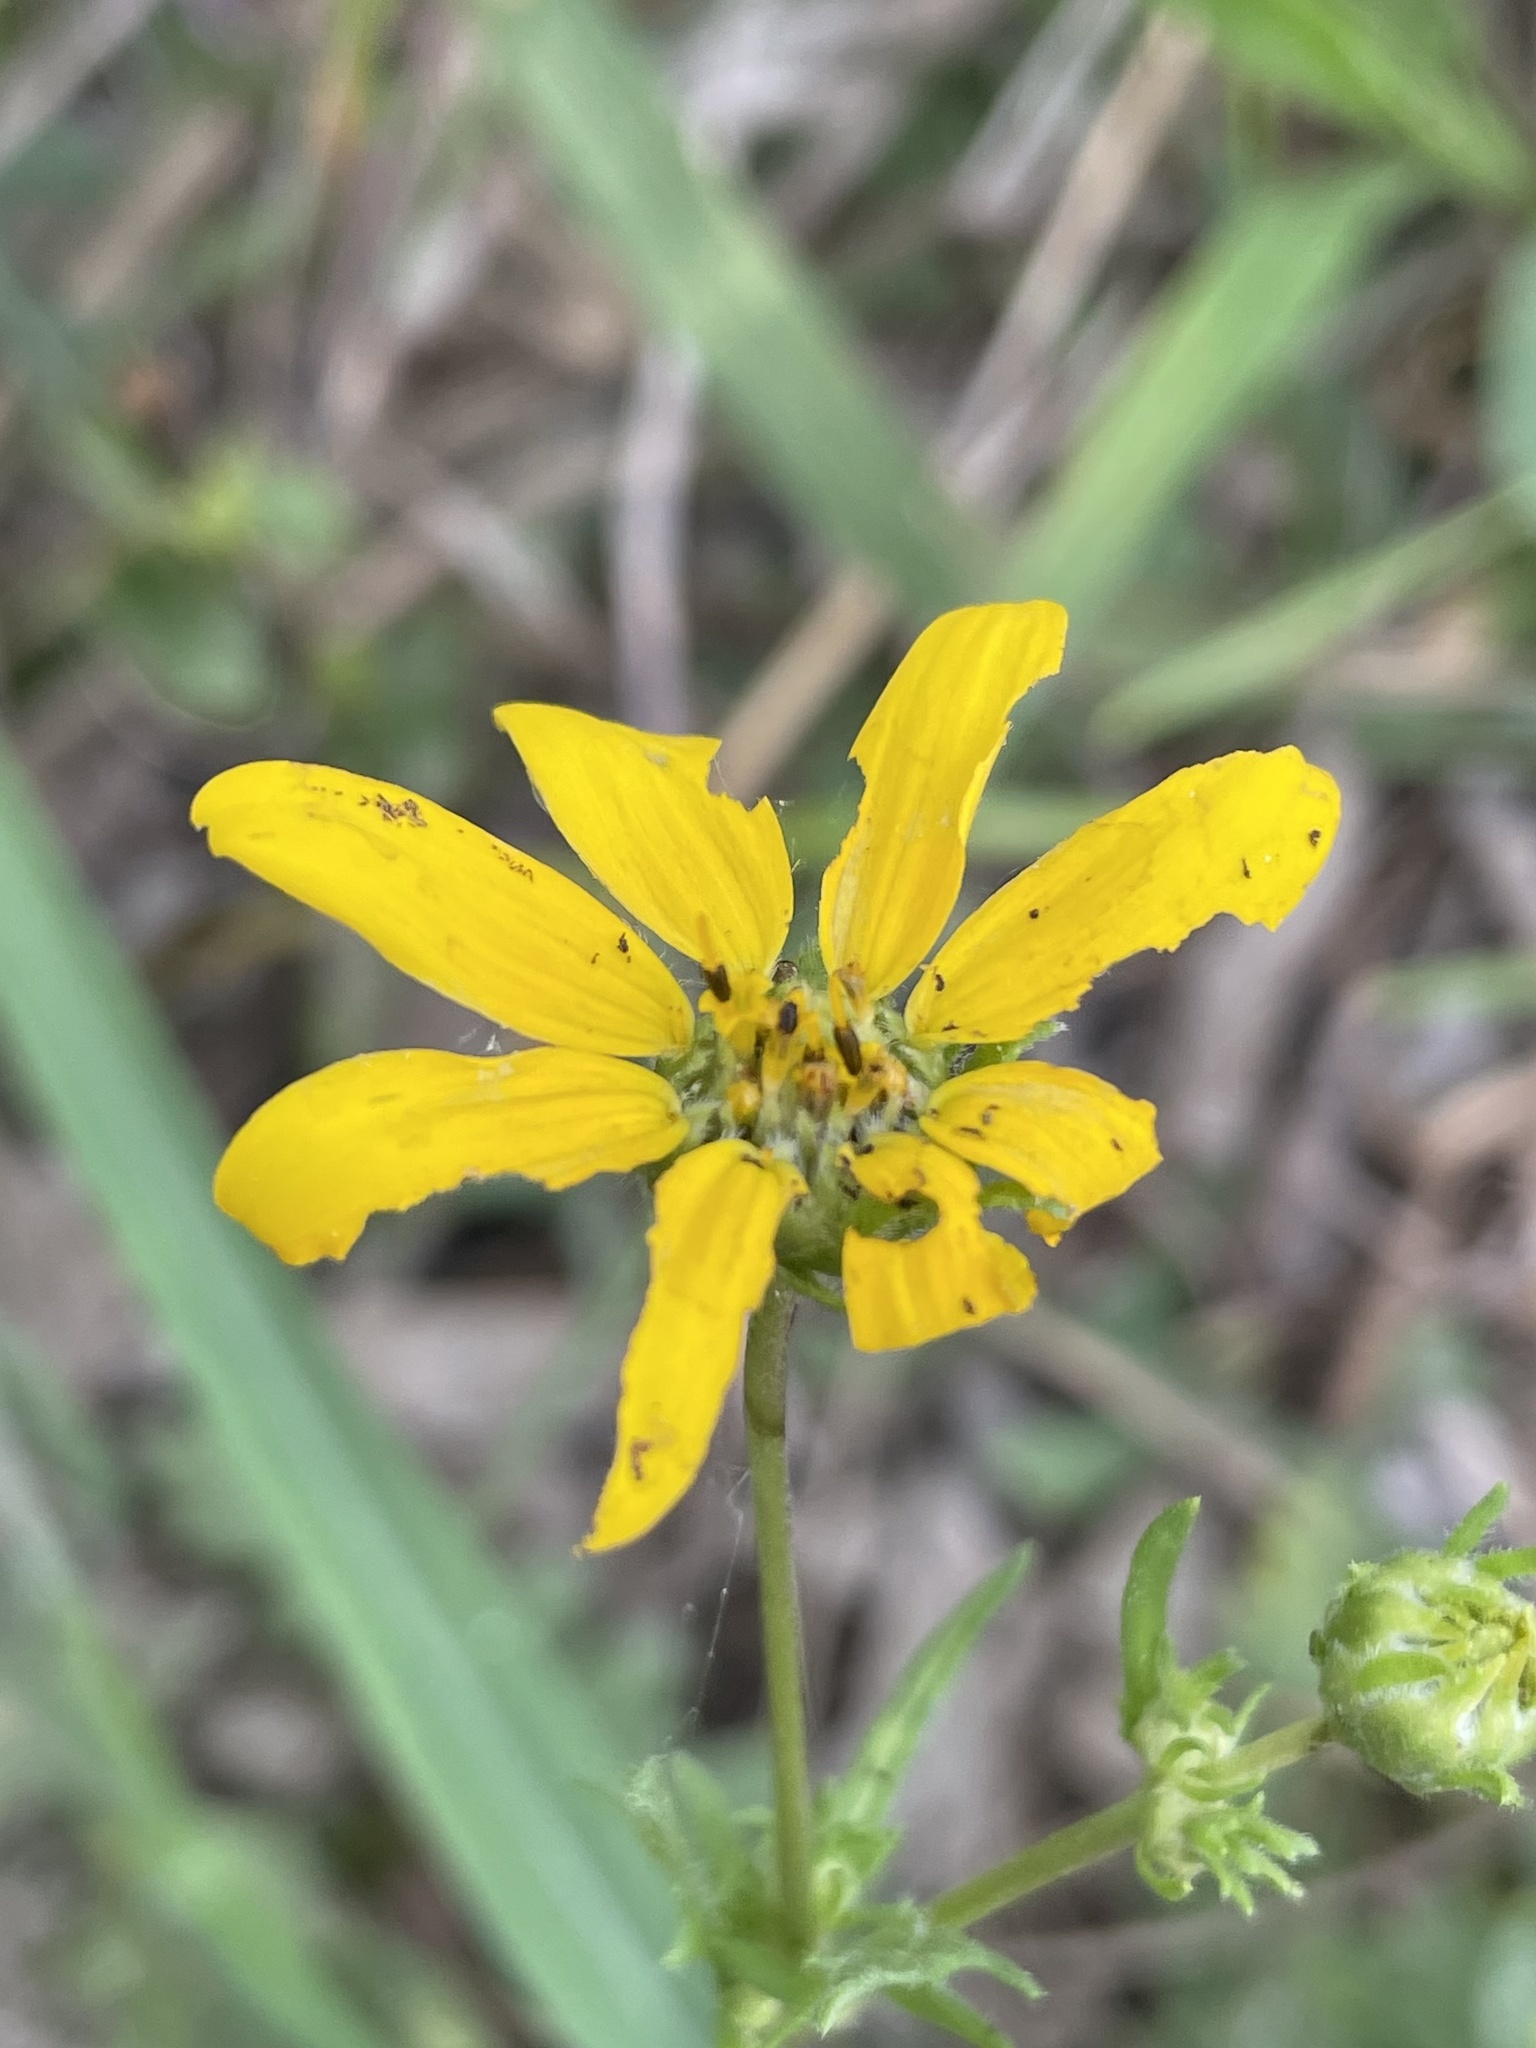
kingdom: Plantae
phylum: Tracheophyta
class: Magnoliopsida
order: Asterales
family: Asteraceae
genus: Engelmannia
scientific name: Engelmannia peristenia
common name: Engelmann's daisy
